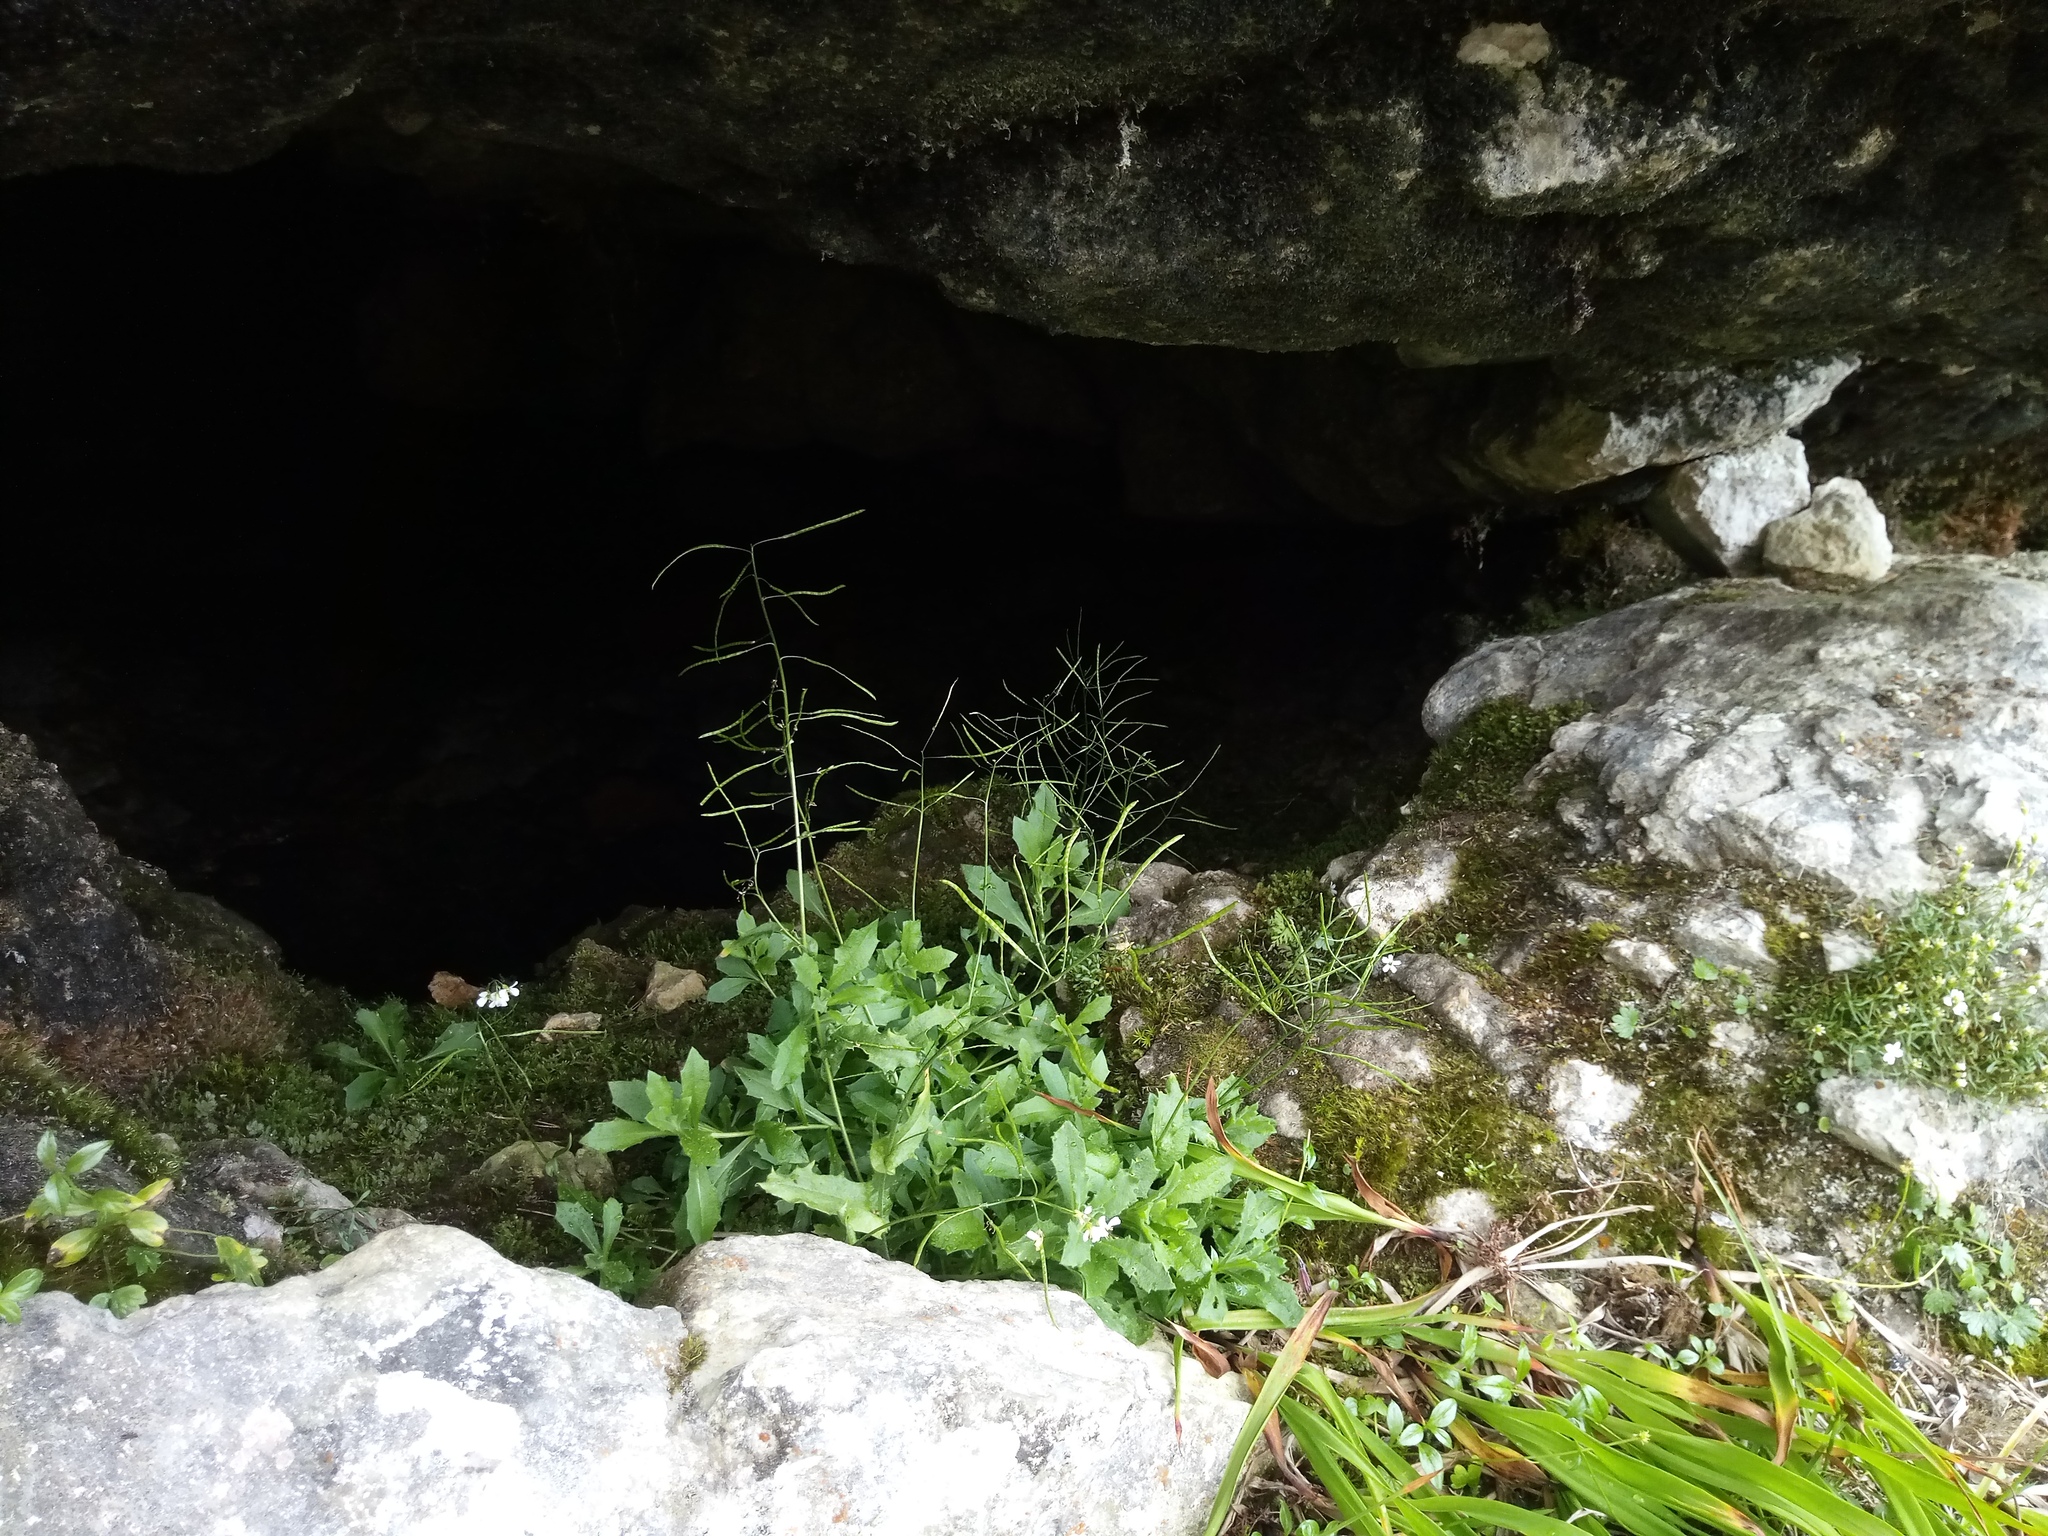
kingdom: Plantae
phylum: Tracheophyta
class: Magnoliopsida
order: Brassicales
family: Brassicaceae
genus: Arabis
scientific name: Arabis alpina
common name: Alpine rock-cress
